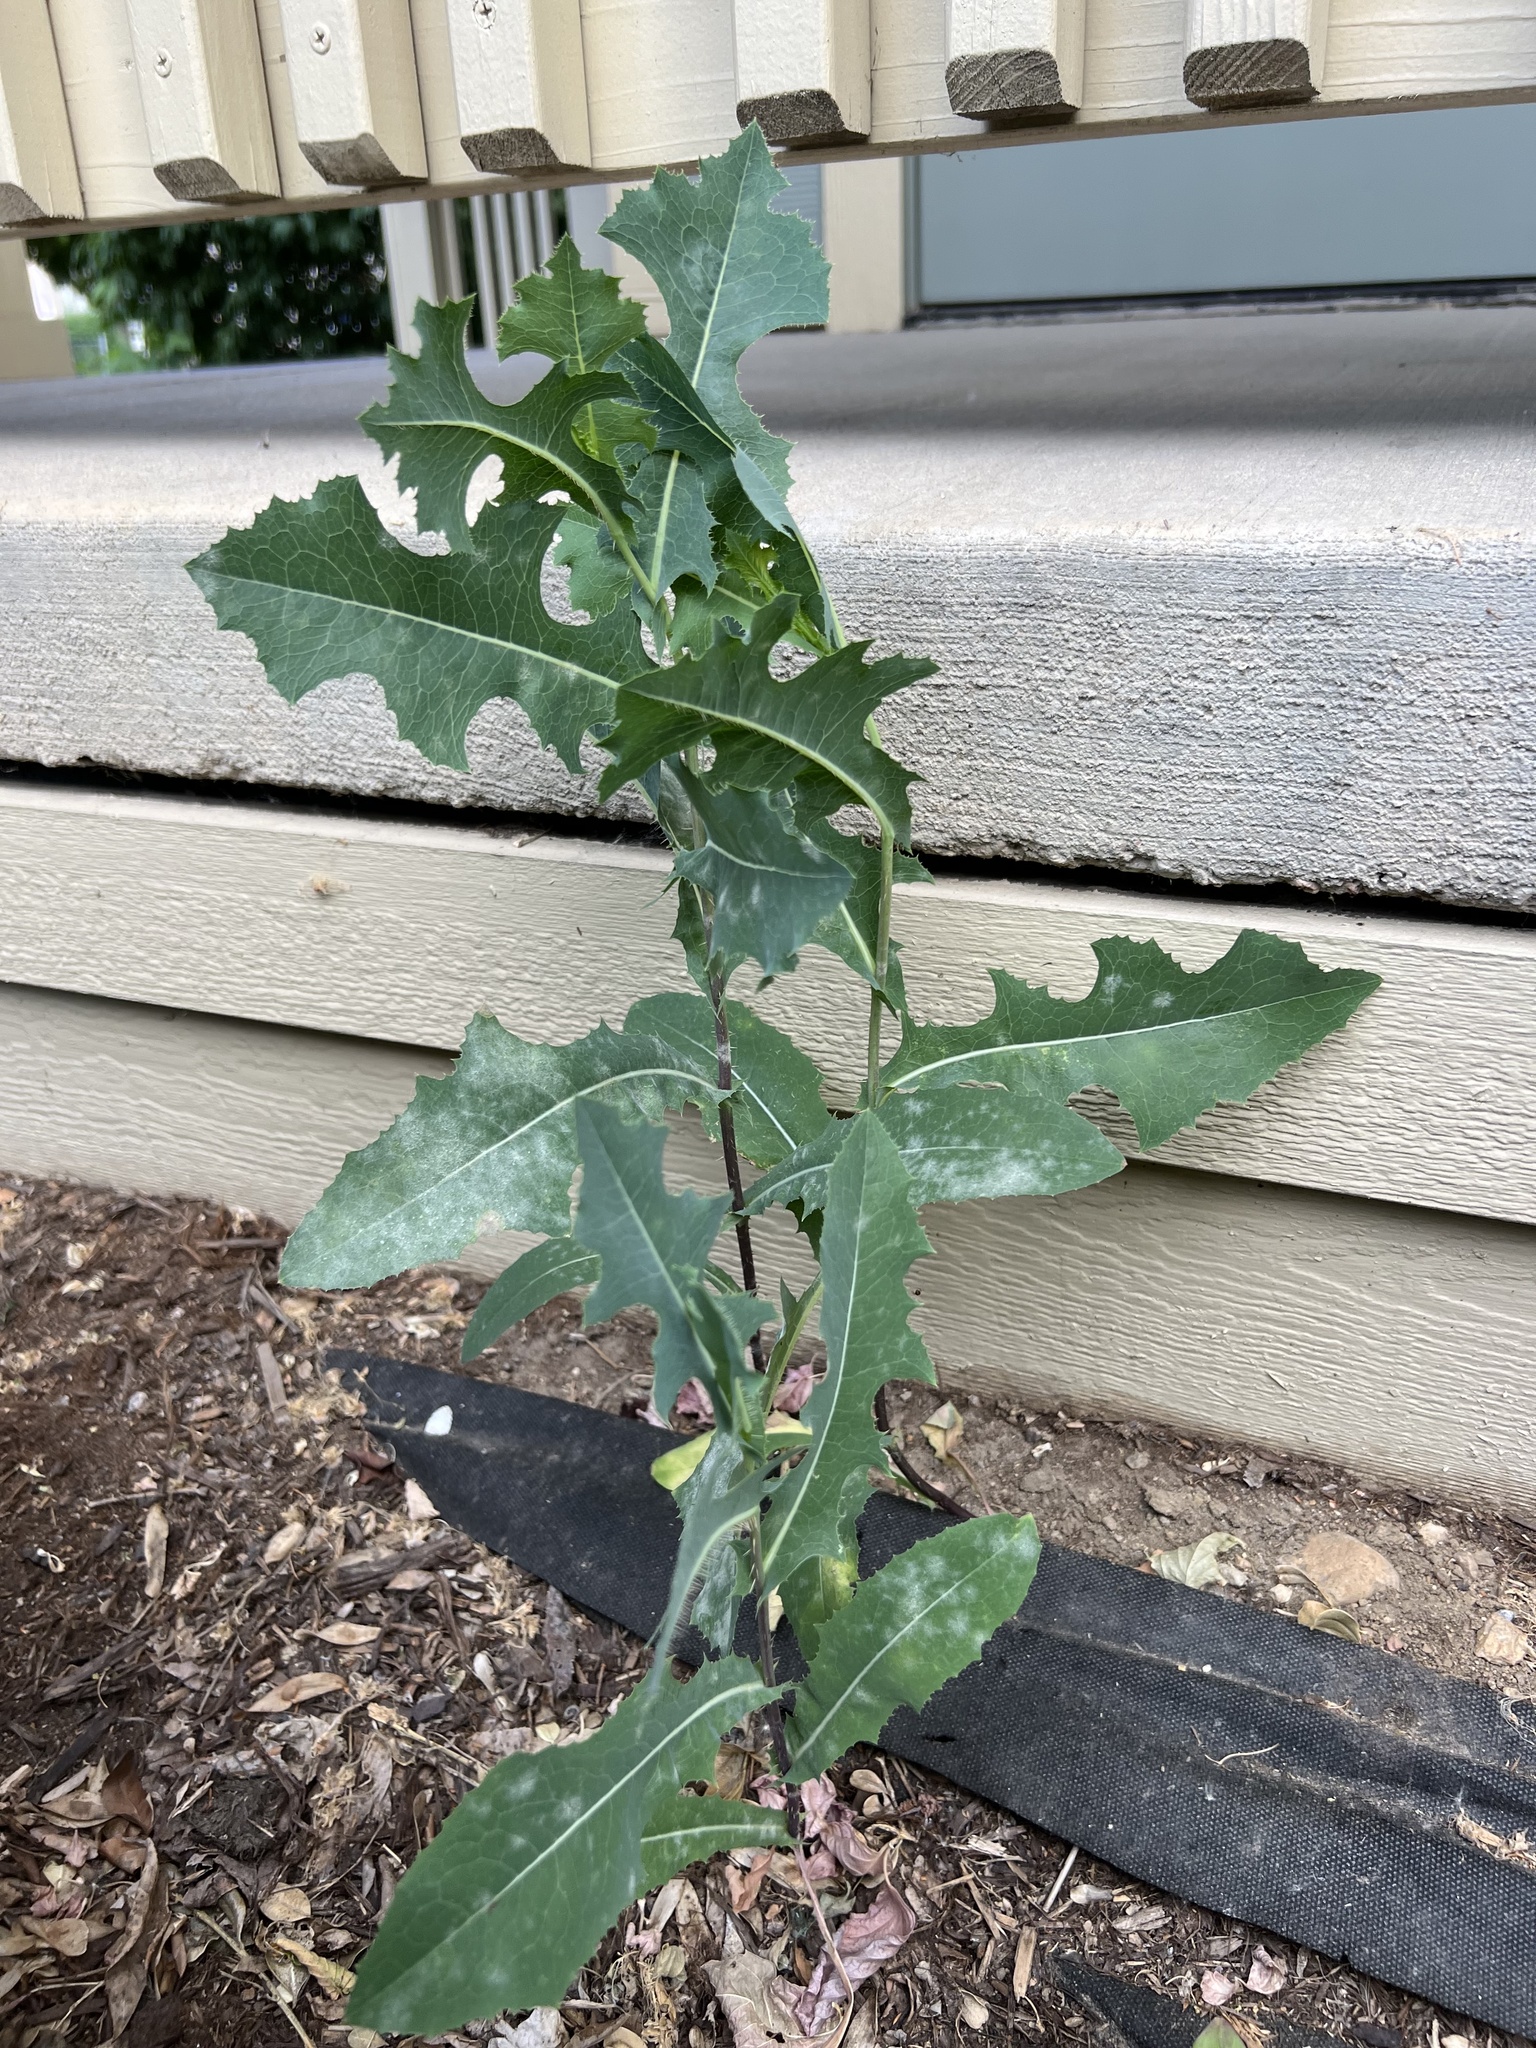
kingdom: Fungi
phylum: Ascomycota
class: Leotiomycetes
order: Helotiales
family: Erysiphaceae
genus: Golovinomyces
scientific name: Golovinomyces sonchicola
